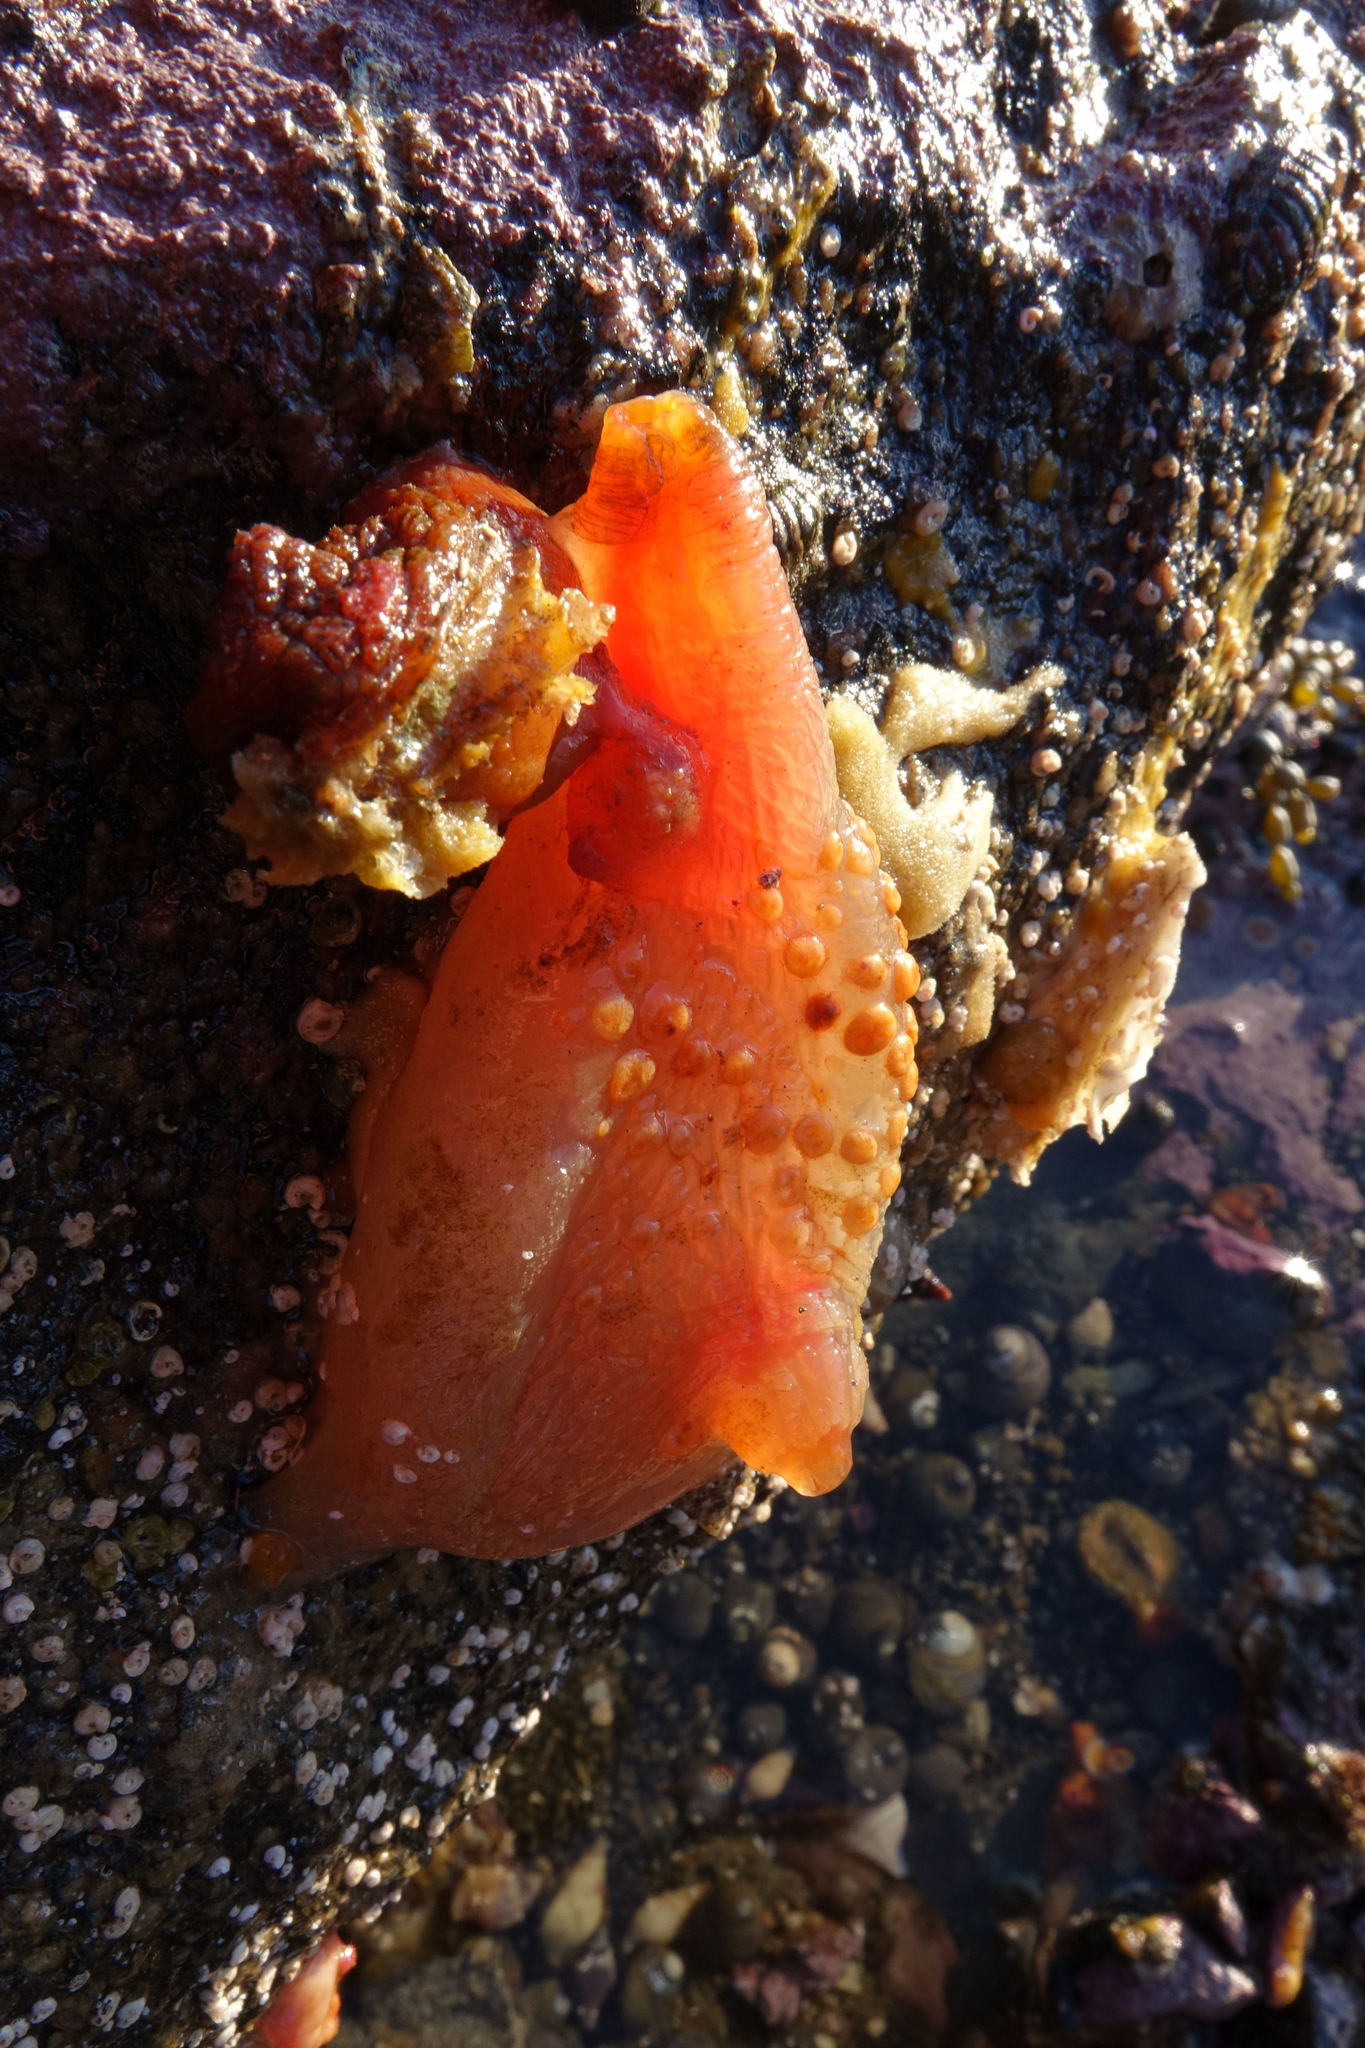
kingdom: Animalia
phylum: Chordata
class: Ascidiacea
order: Stolidobranchia
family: Styelidae
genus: Cnemidocarpa
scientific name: Cnemidocarpa bicornuta
